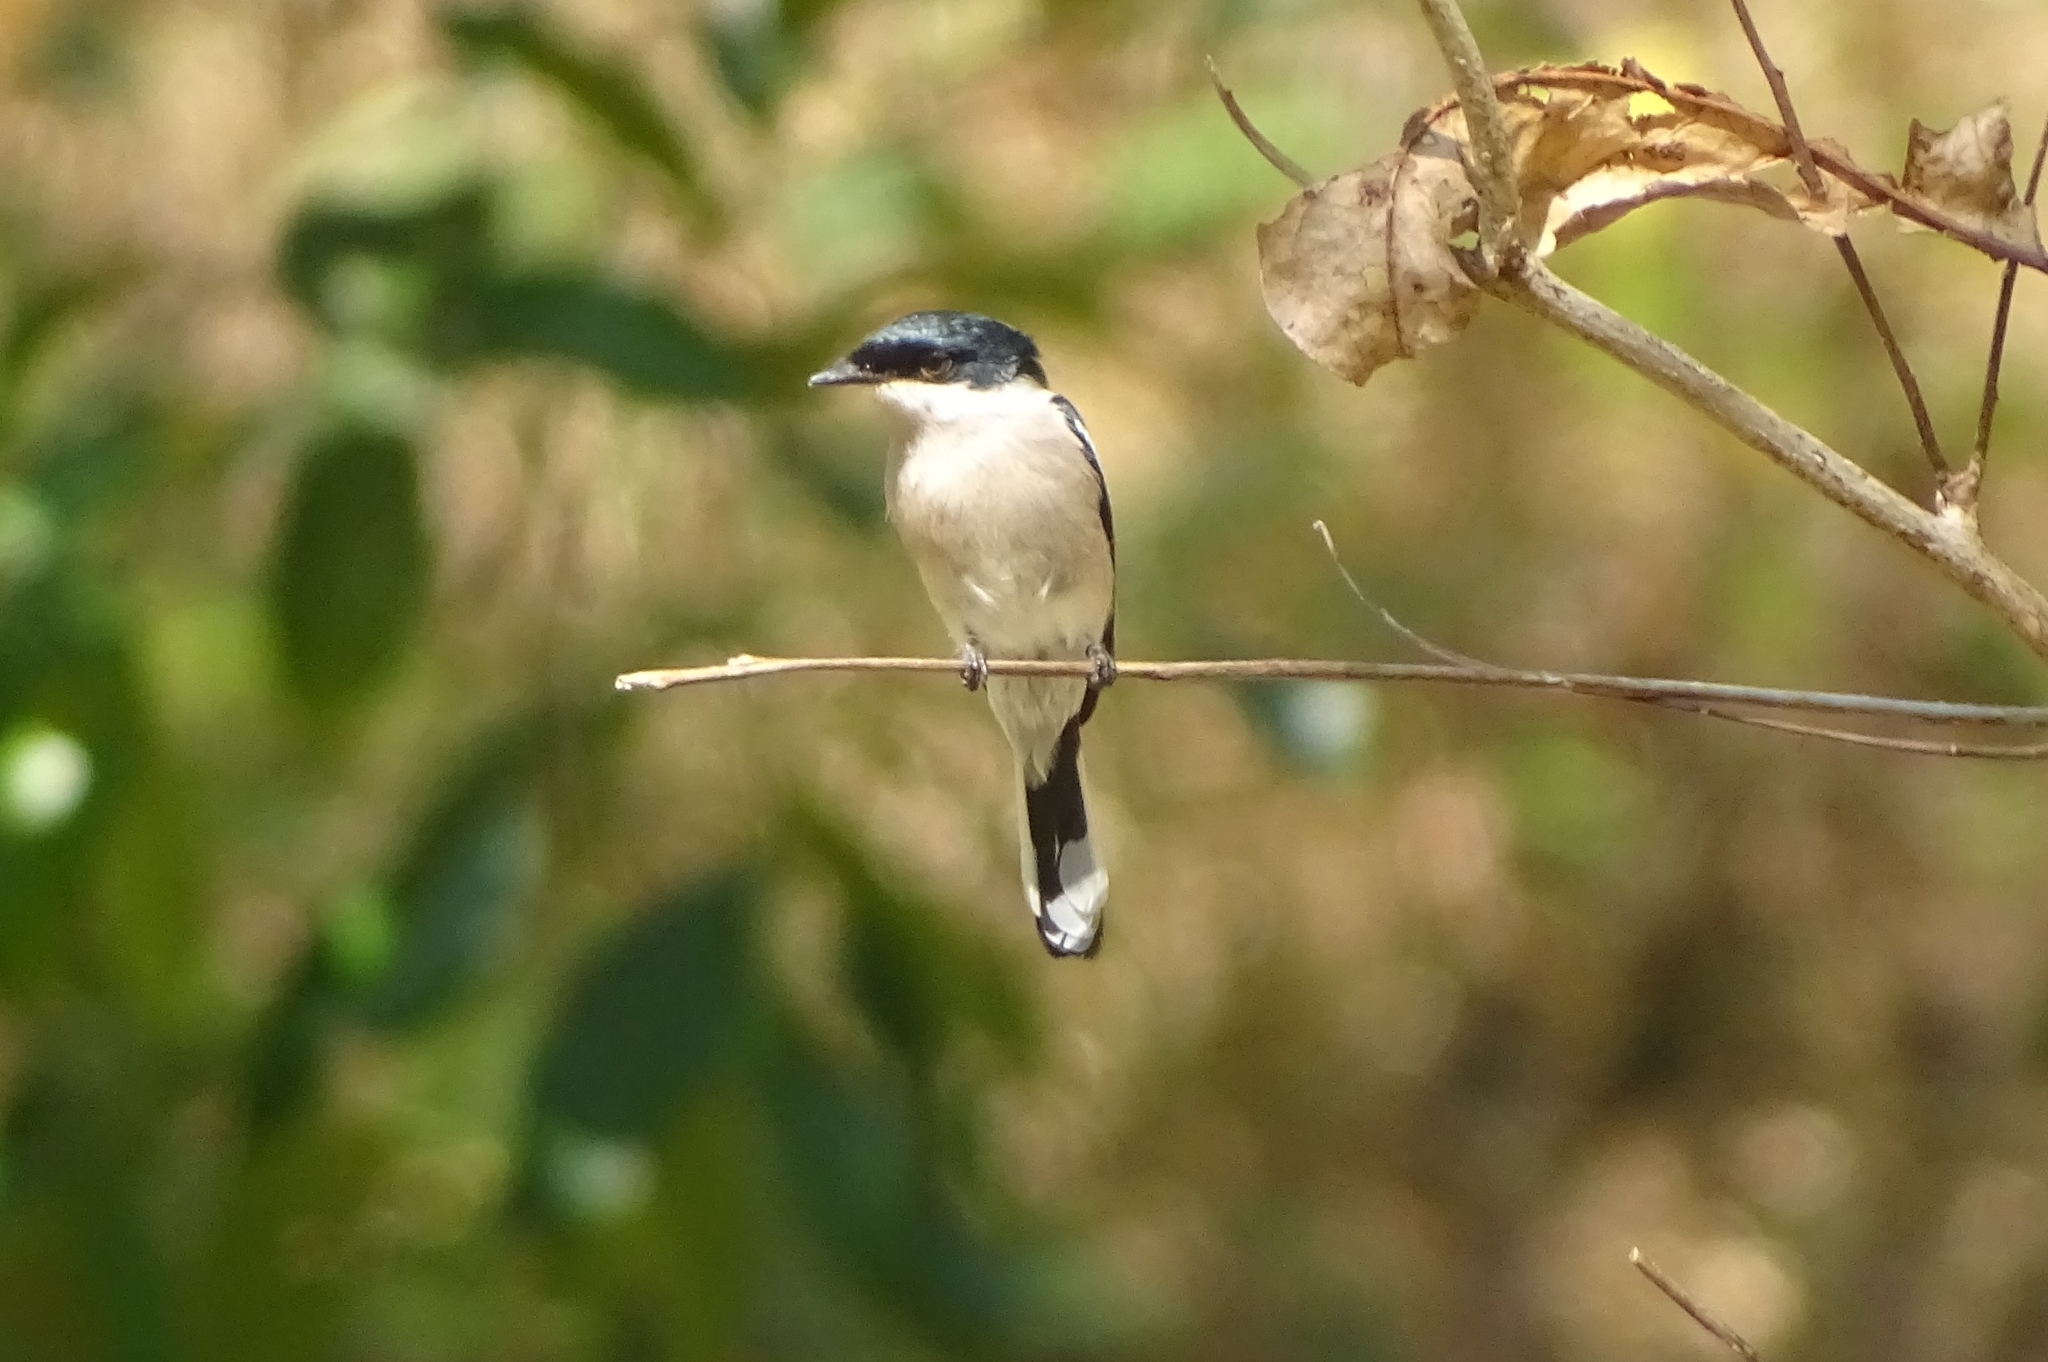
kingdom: Animalia
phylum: Chordata
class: Aves
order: Passeriformes
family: Tephrodornithidae
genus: Hemipus
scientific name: Hemipus picatus
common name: Bar-winged flycatcher-shrike
